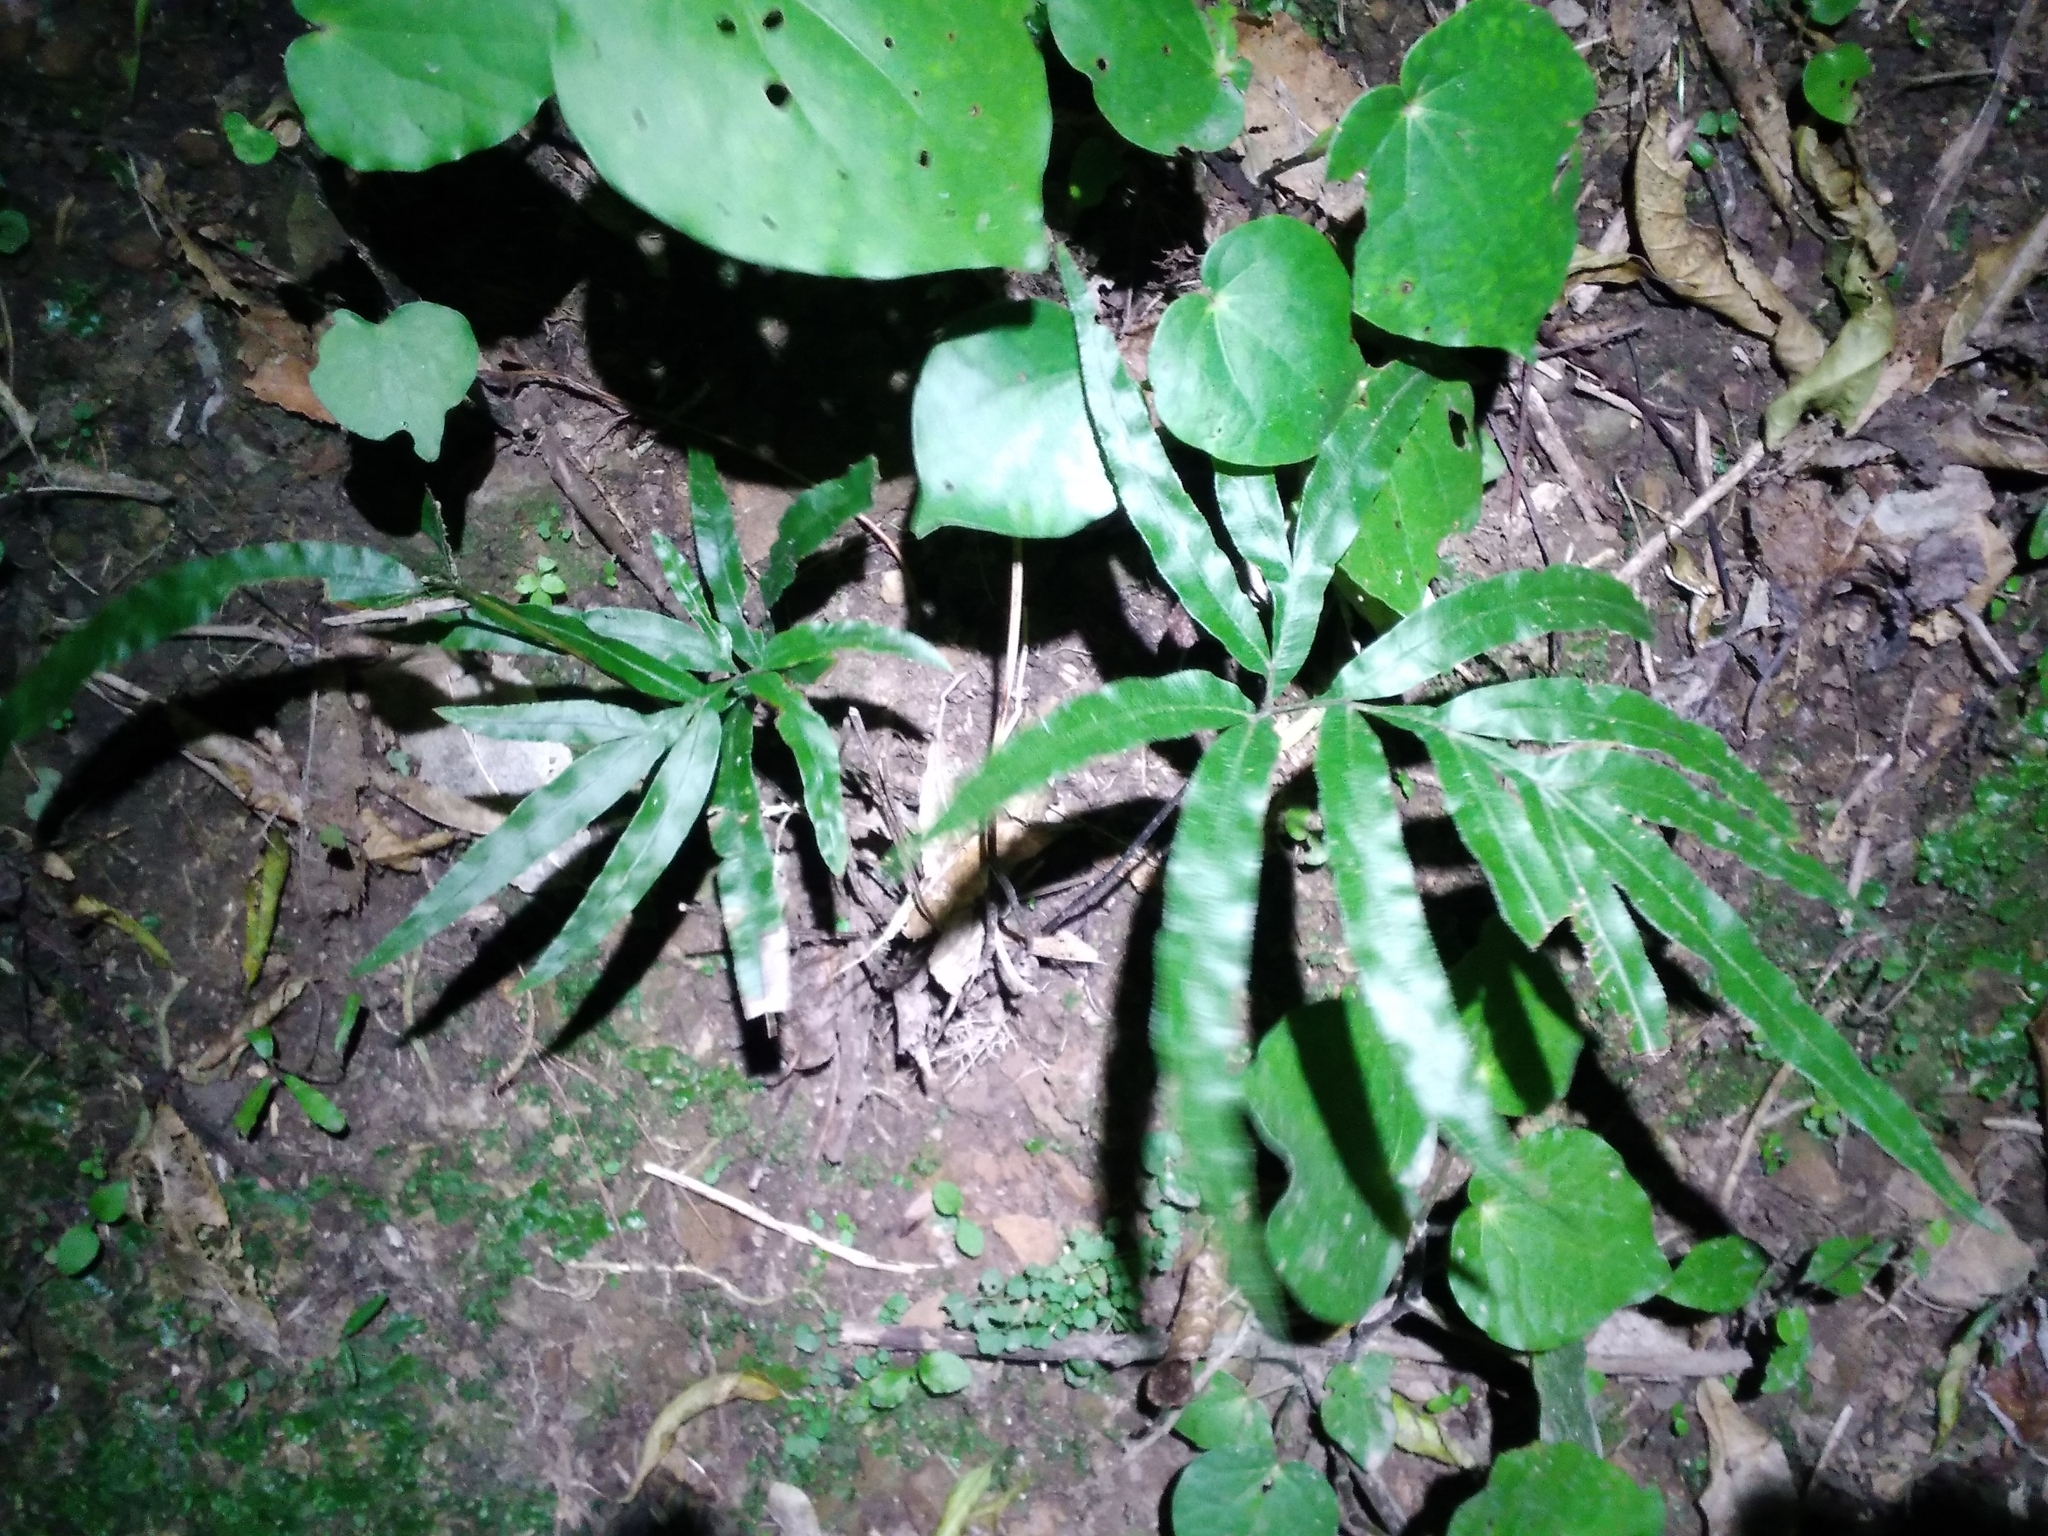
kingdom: Plantae
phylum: Tracheophyta
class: Polypodiopsida
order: Polypodiales
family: Pteridaceae
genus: Pteris
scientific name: Pteris cretica
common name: Ribbon fern
